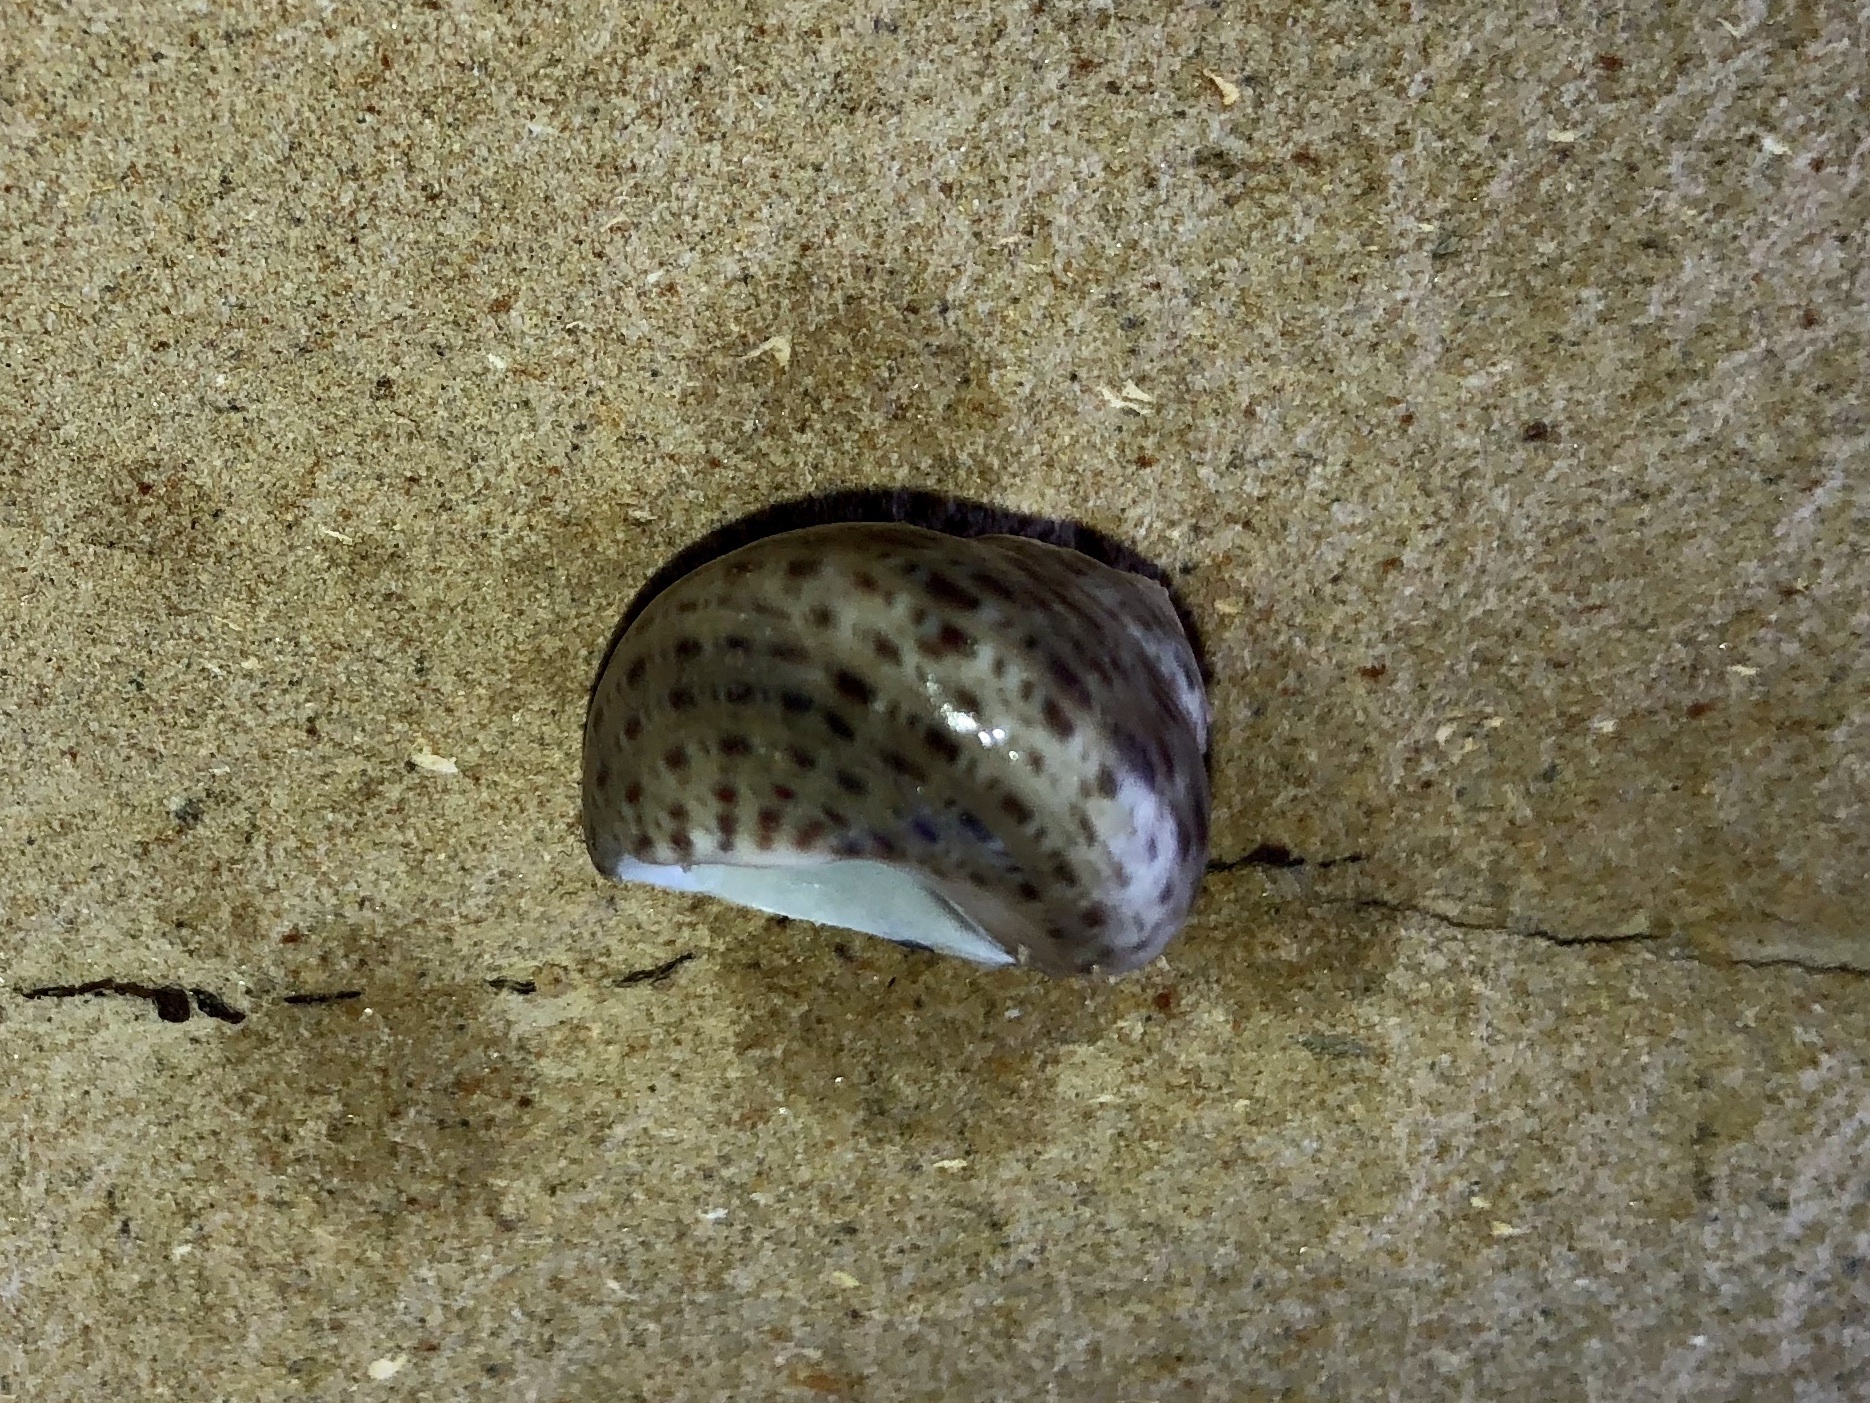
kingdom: Animalia
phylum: Mollusca
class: Gastropoda
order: Trochida
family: Trochidae
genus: Phorcus
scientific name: Phorcus mutabilis
